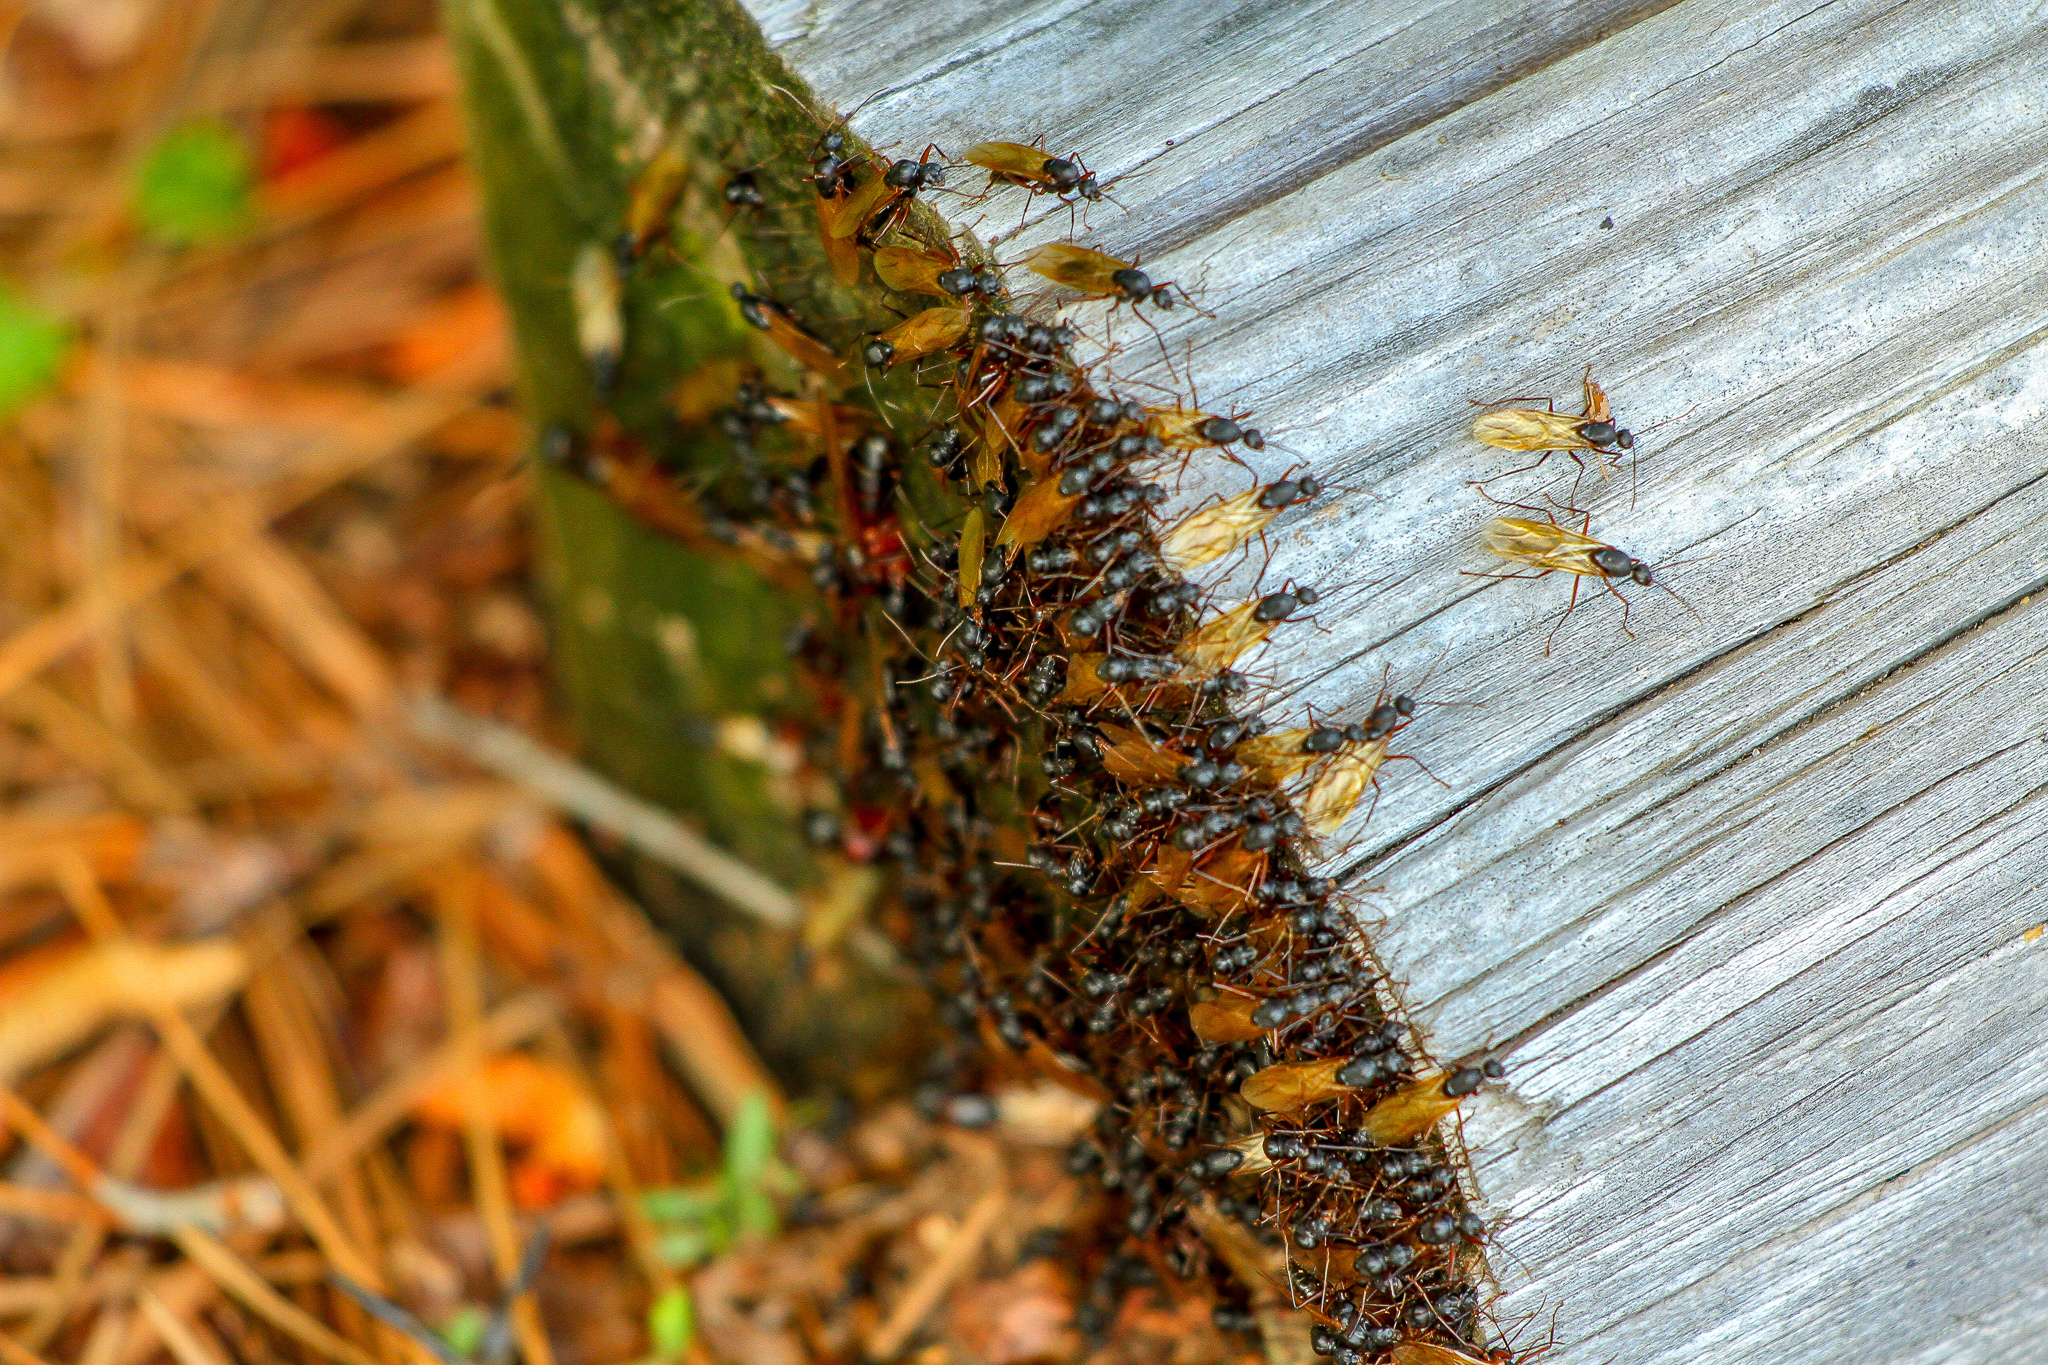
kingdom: Animalia
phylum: Arthropoda
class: Insecta
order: Hymenoptera
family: Formicidae
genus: Camponotus
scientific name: Camponotus chromaiodes
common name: Red carpenter ant
